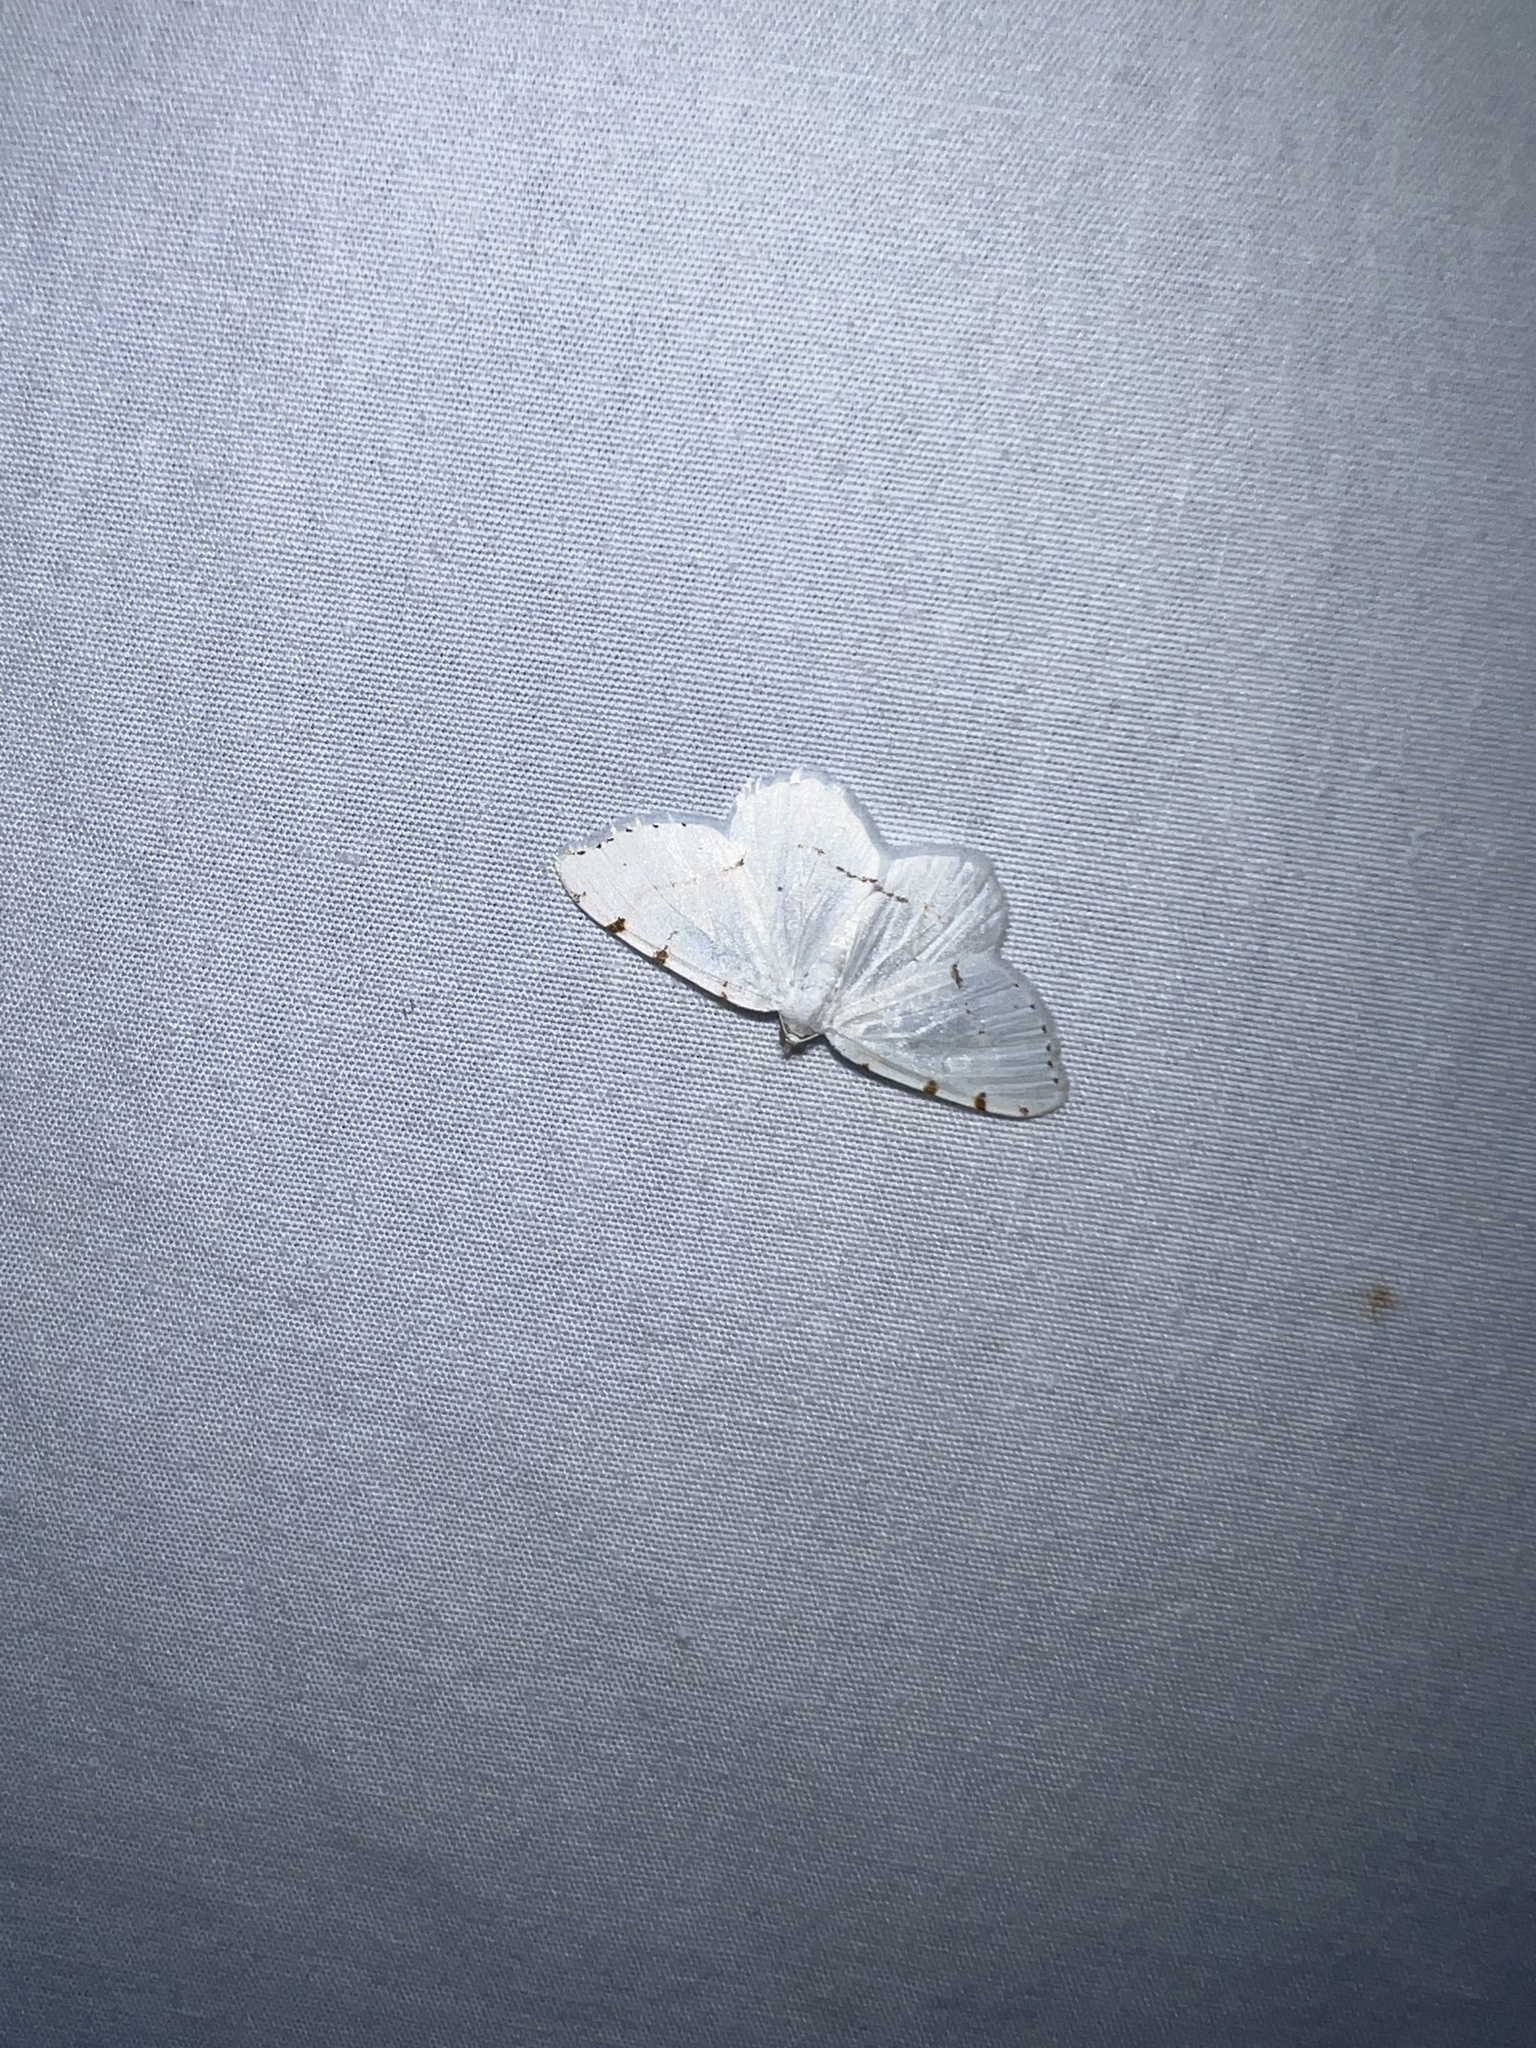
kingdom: Animalia
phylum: Arthropoda
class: Insecta
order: Lepidoptera
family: Geometridae
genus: Macaria
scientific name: Macaria pustularia
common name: Lesser maple spanworm moth
